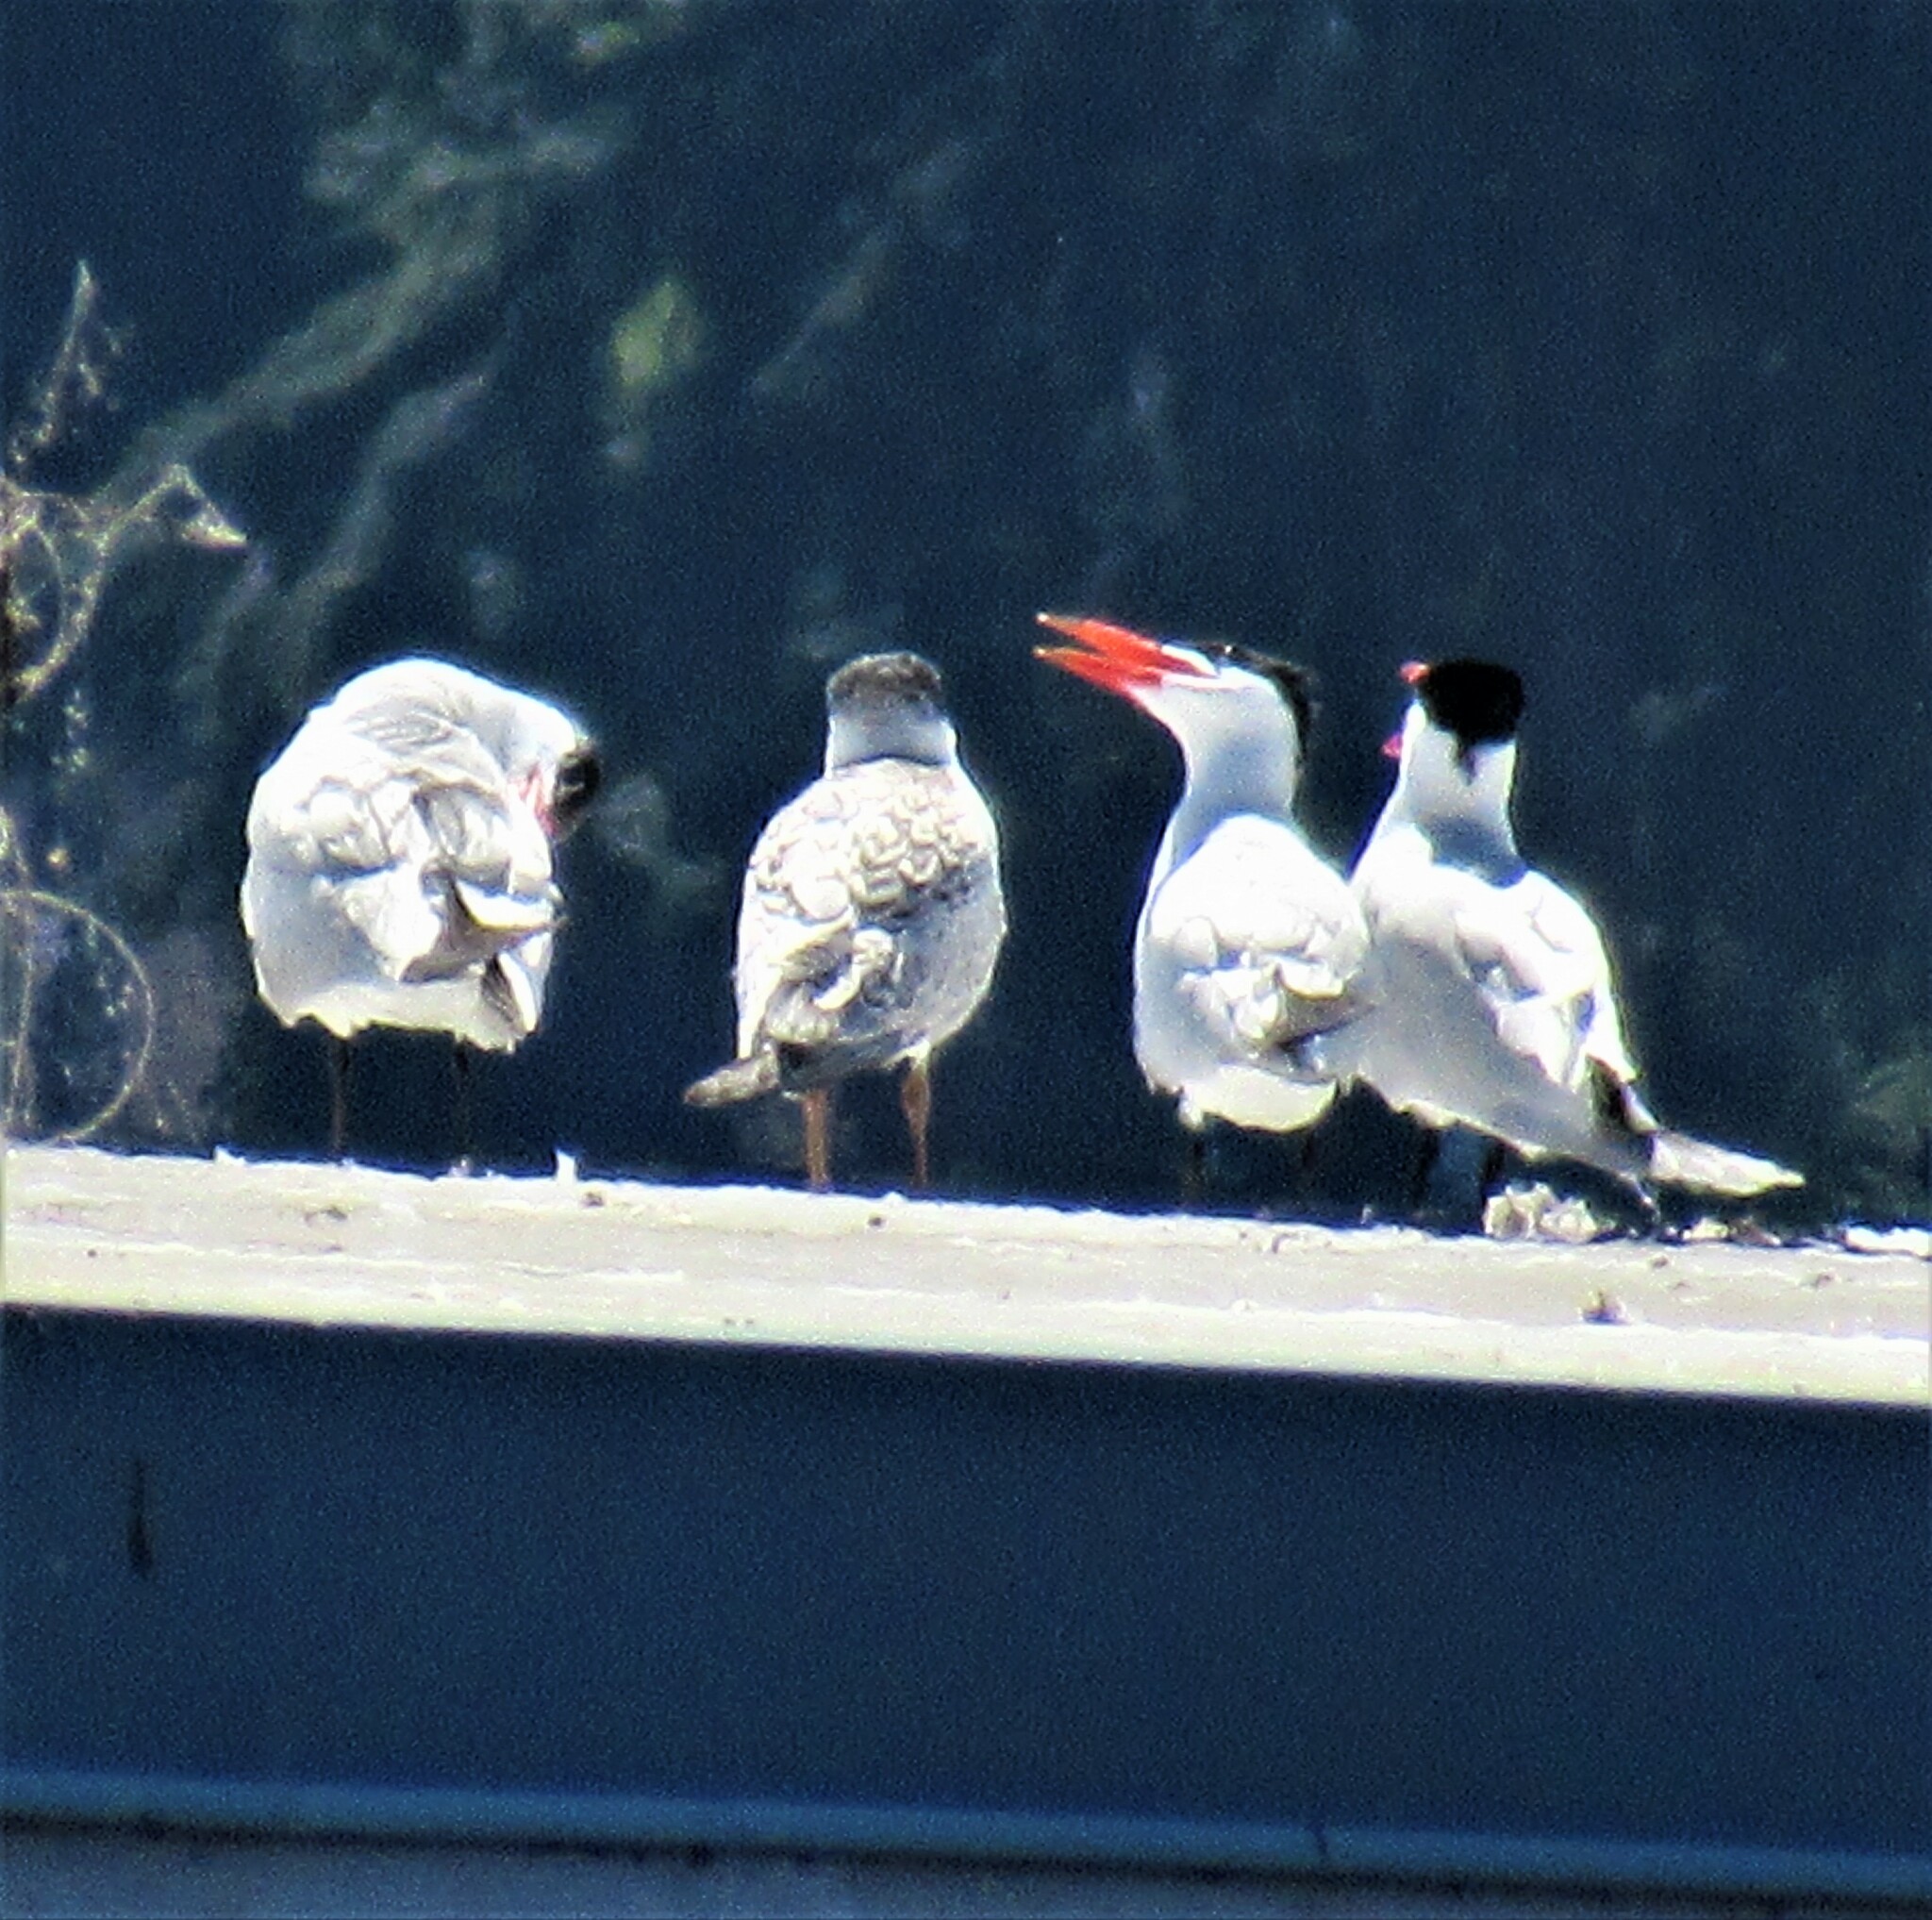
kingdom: Animalia
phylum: Chordata
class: Aves
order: Charadriiformes
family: Laridae
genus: Hydroprogne
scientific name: Hydroprogne caspia
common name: Caspian tern
